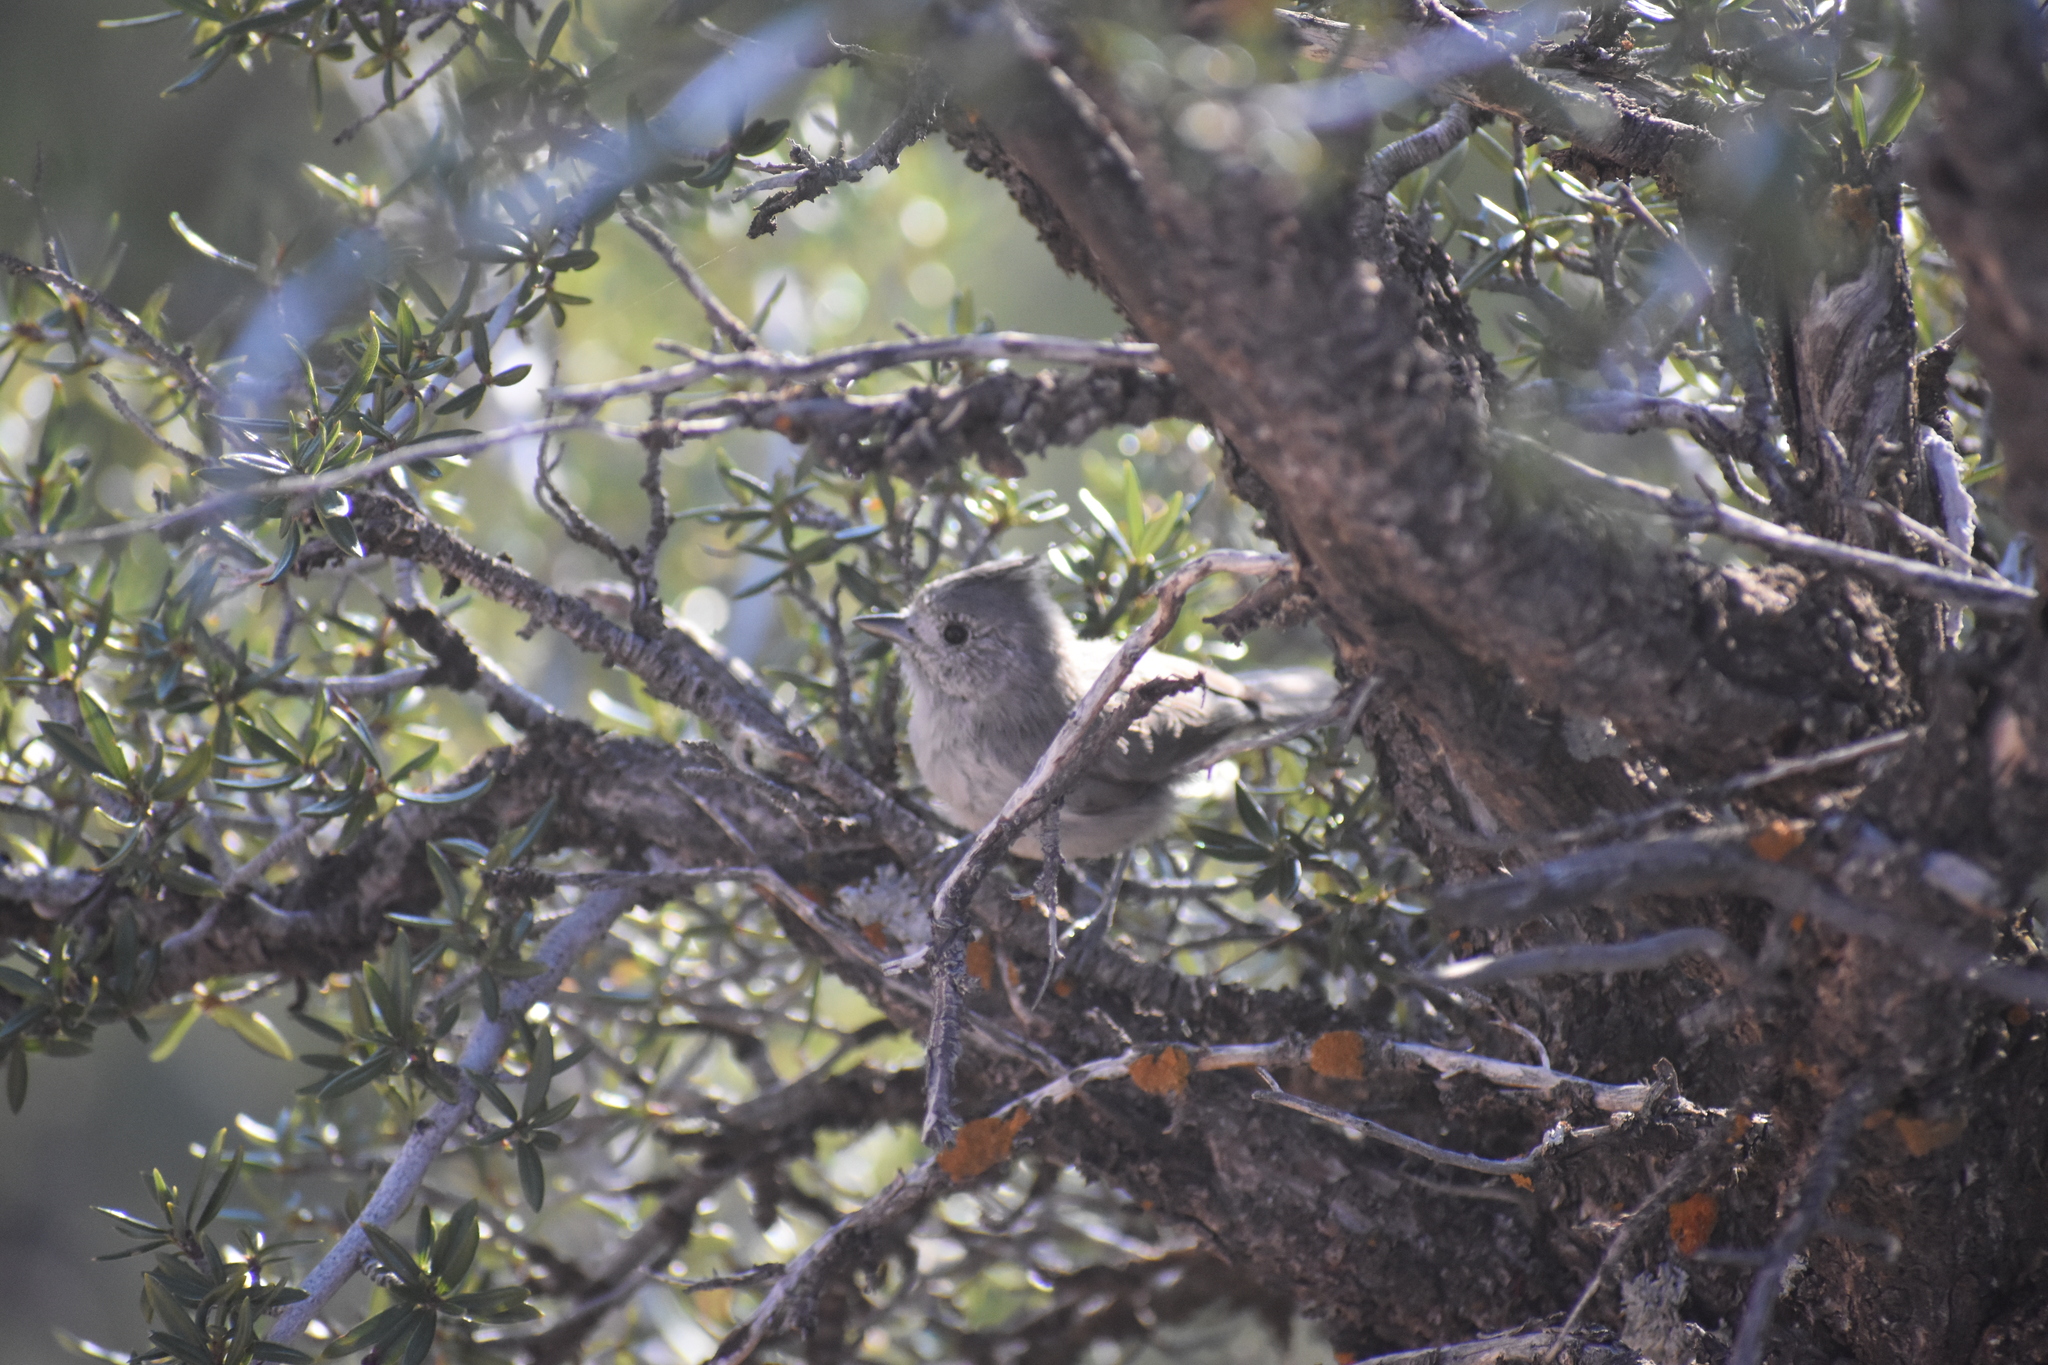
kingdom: Animalia
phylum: Chordata
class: Aves
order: Passeriformes
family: Paridae
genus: Baeolophus
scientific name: Baeolophus ridgwayi
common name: Juniper titmouse
